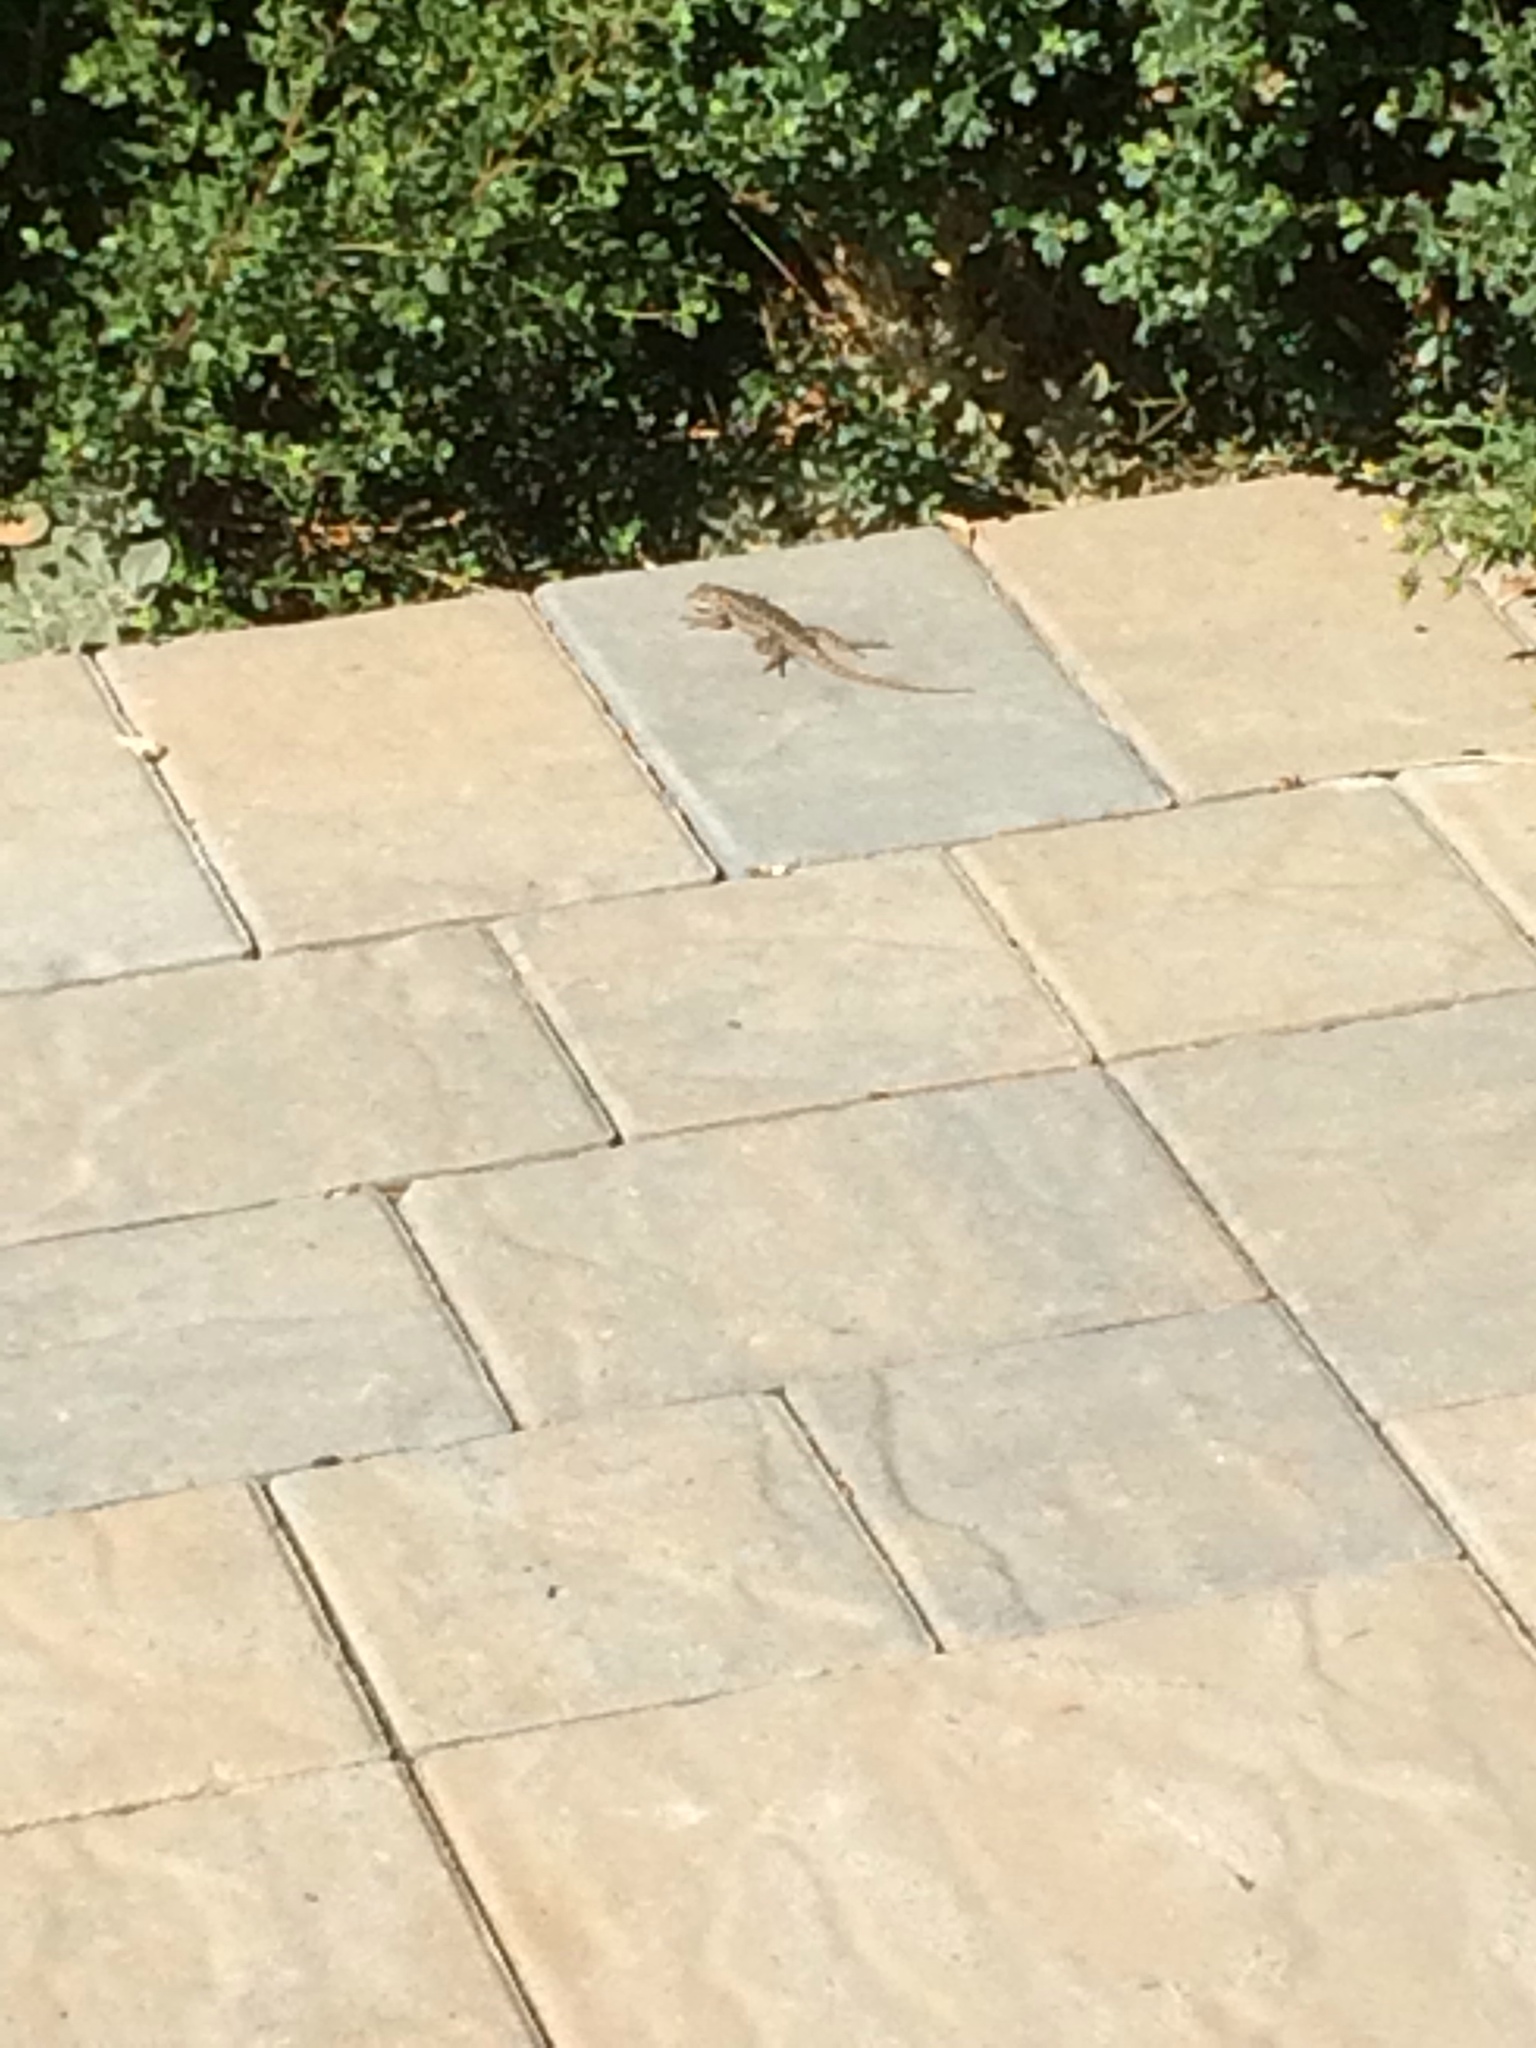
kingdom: Animalia
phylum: Chordata
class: Squamata
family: Phrynosomatidae
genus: Sceloporus
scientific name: Sceloporus occidentalis
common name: Western fence lizard
